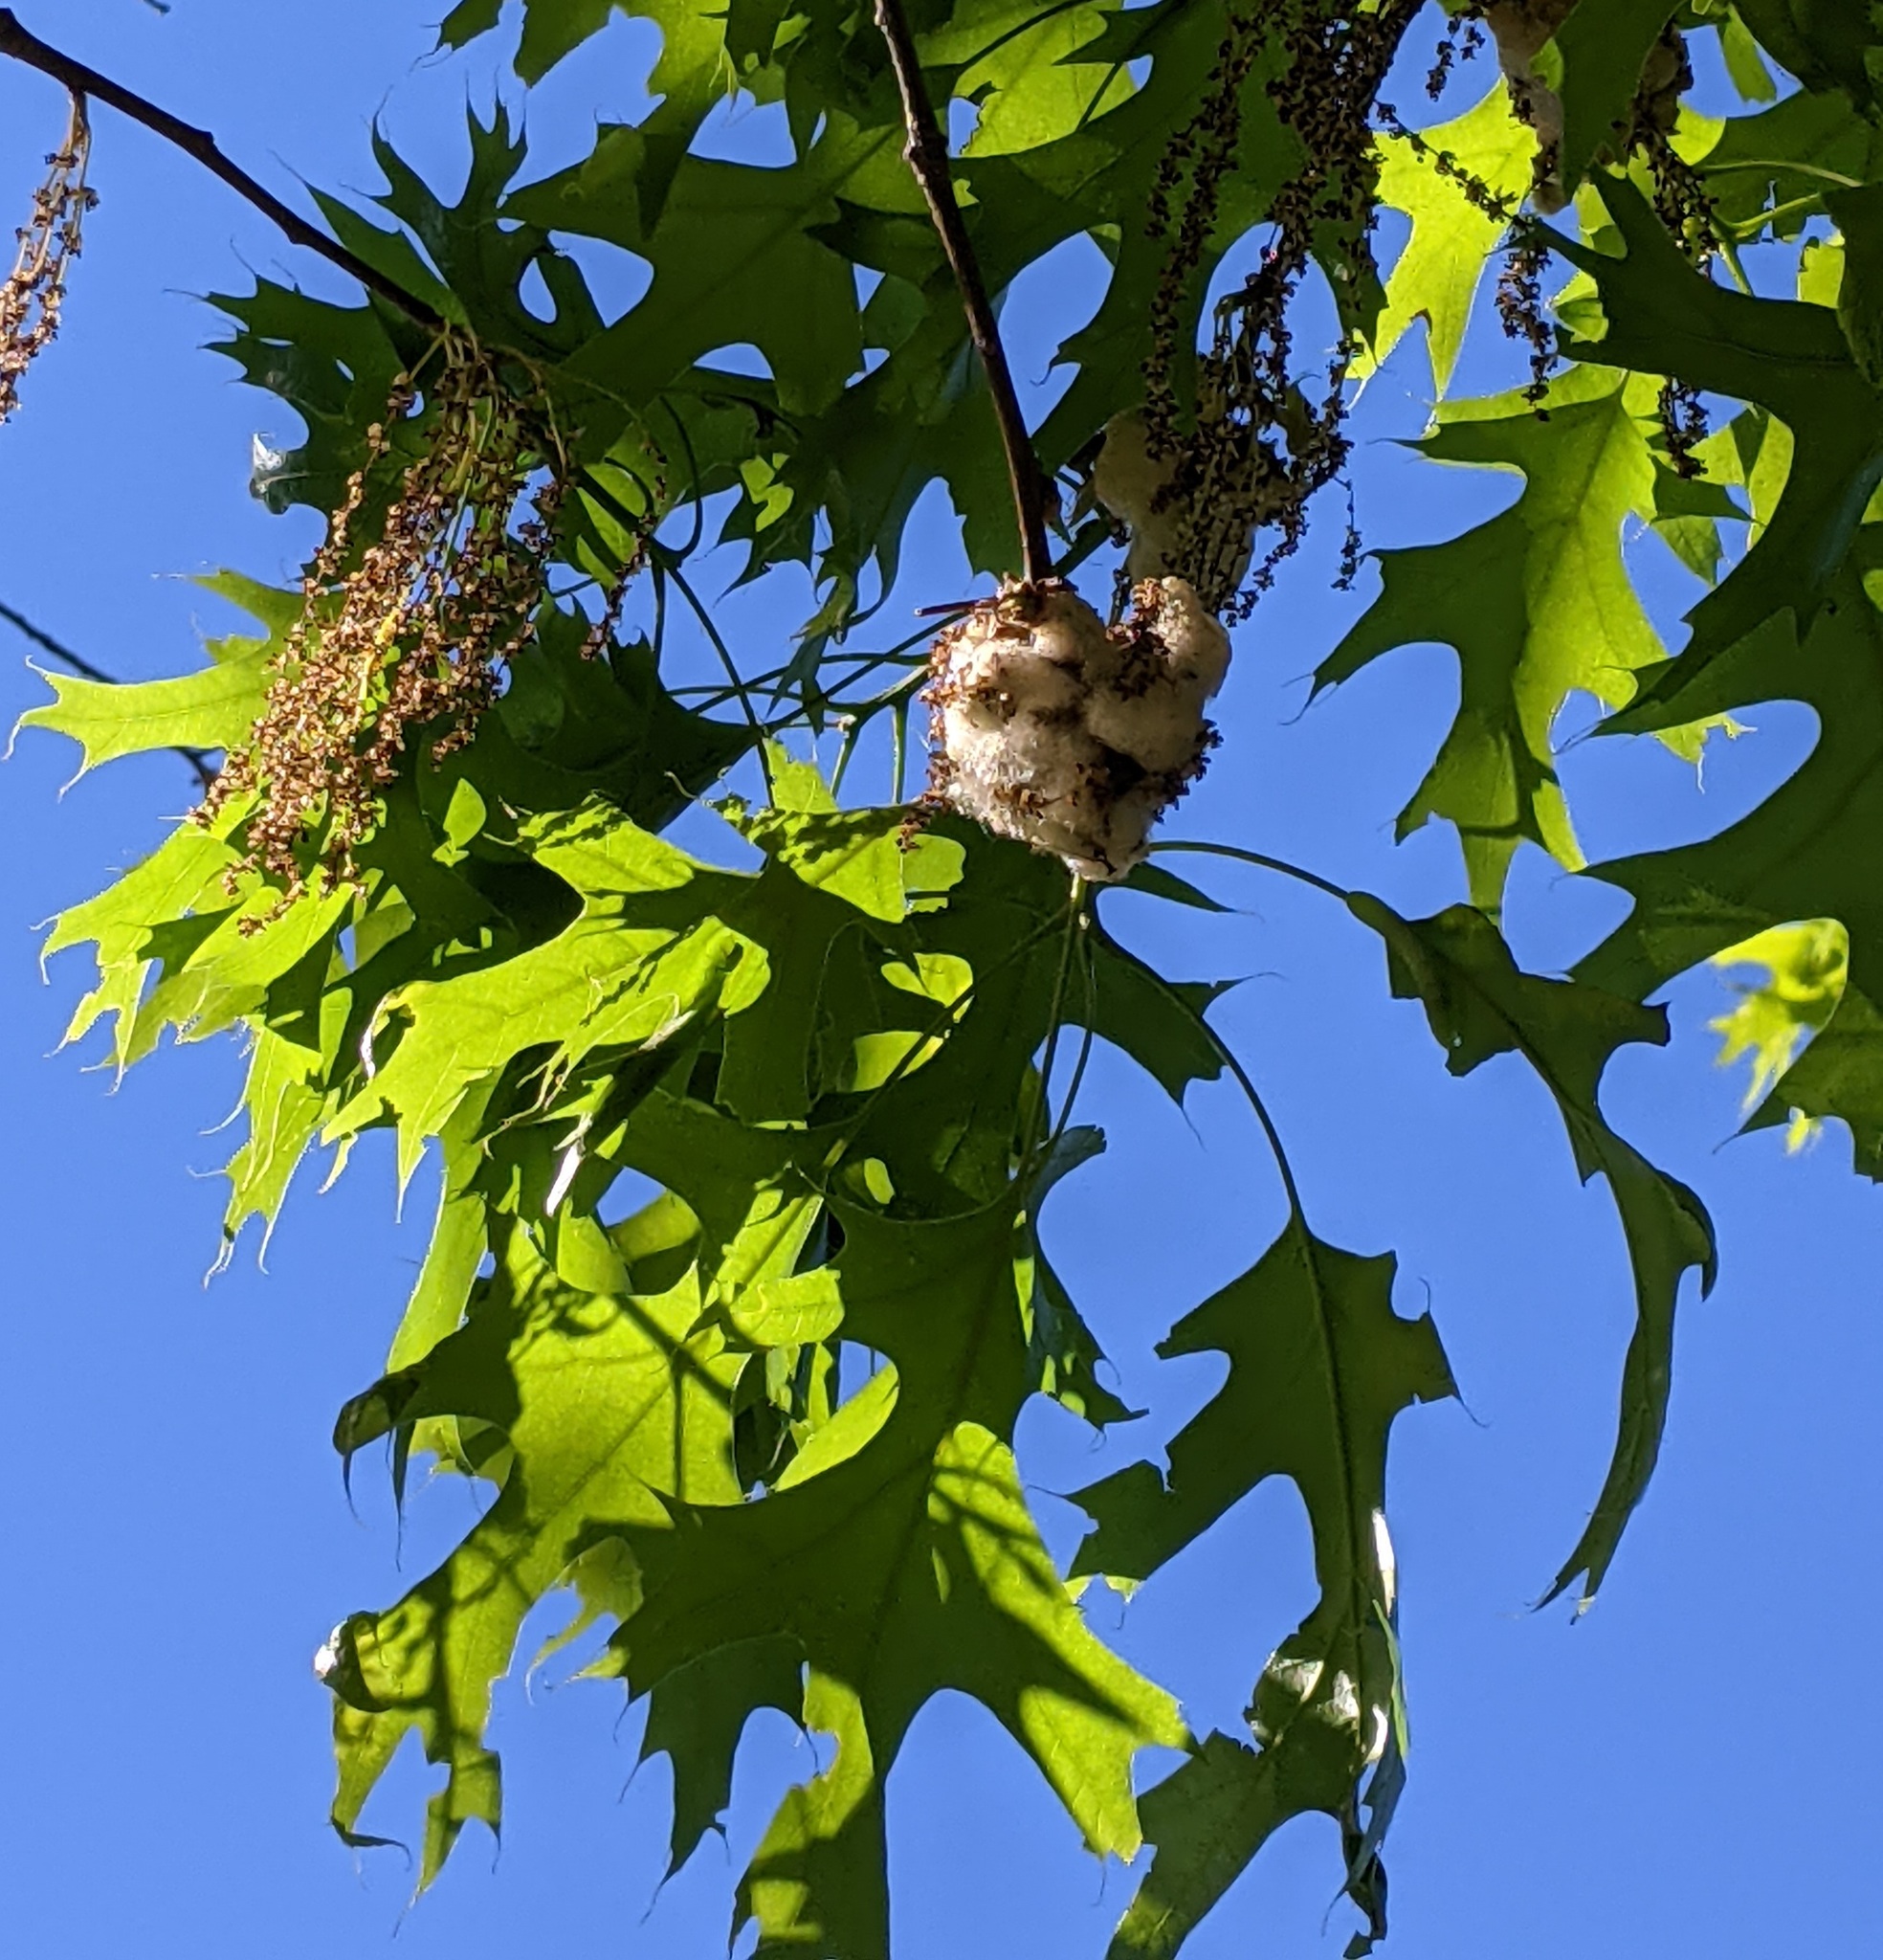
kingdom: Animalia
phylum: Arthropoda
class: Insecta
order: Hymenoptera
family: Cynipidae
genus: Callirhytis
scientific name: Callirhytis
